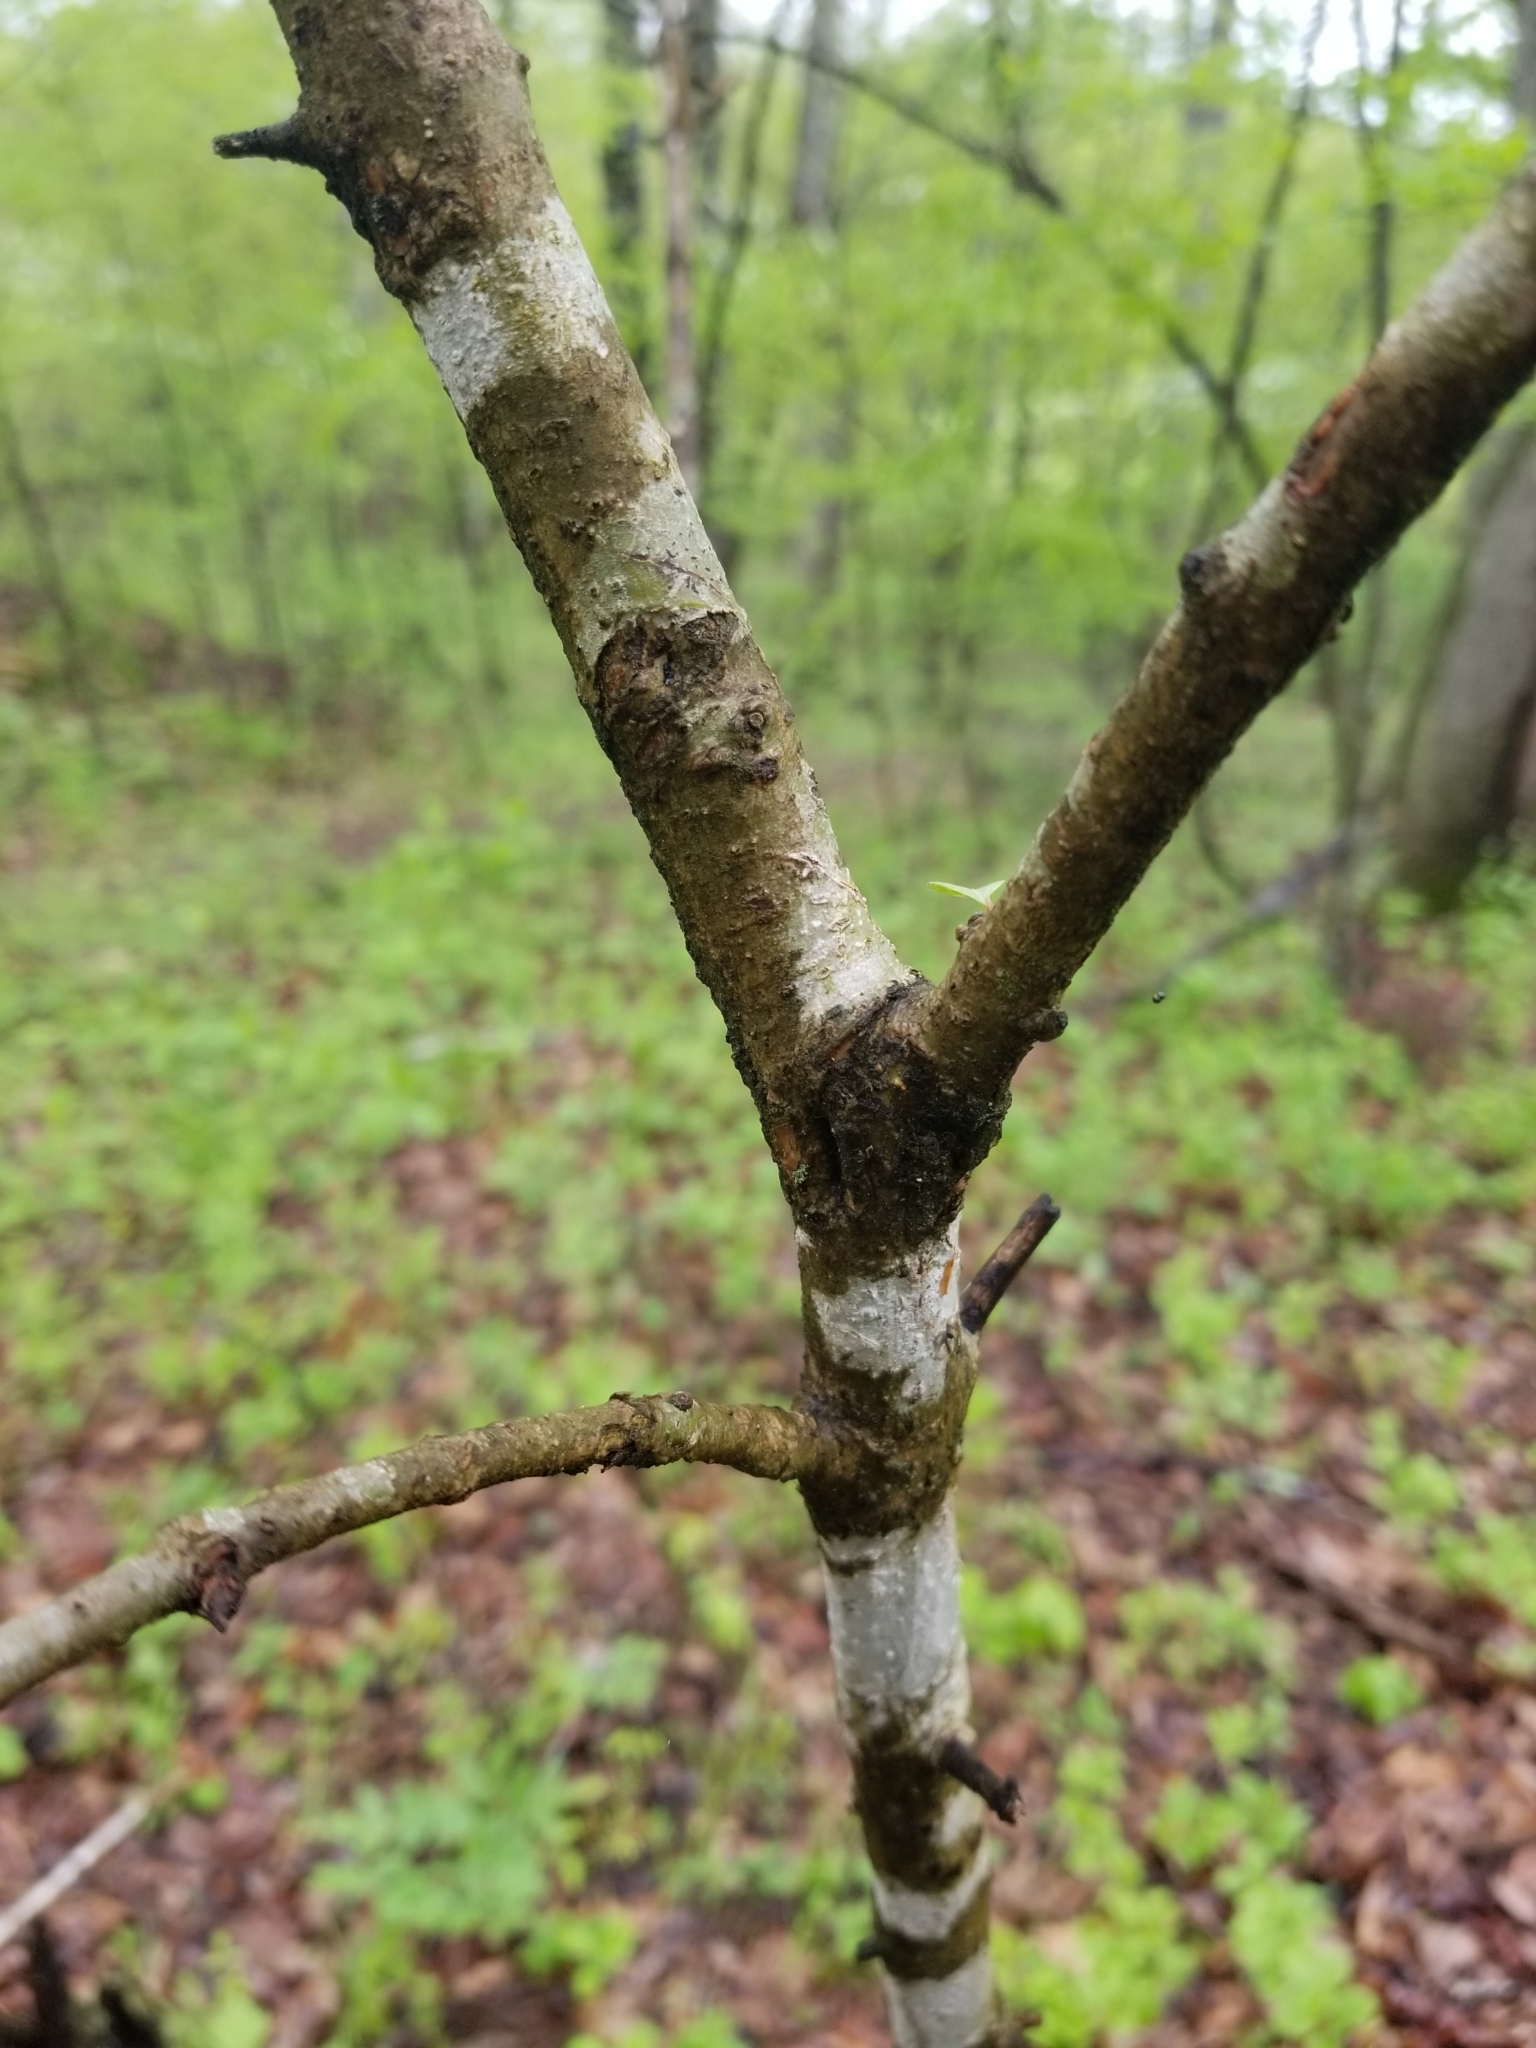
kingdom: Plantae
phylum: Tracheophyta
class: Magnoliopsida
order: Dipsacales
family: Viburnaceae
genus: Viburnum
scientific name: Viburnum prunifolium
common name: Black haw
